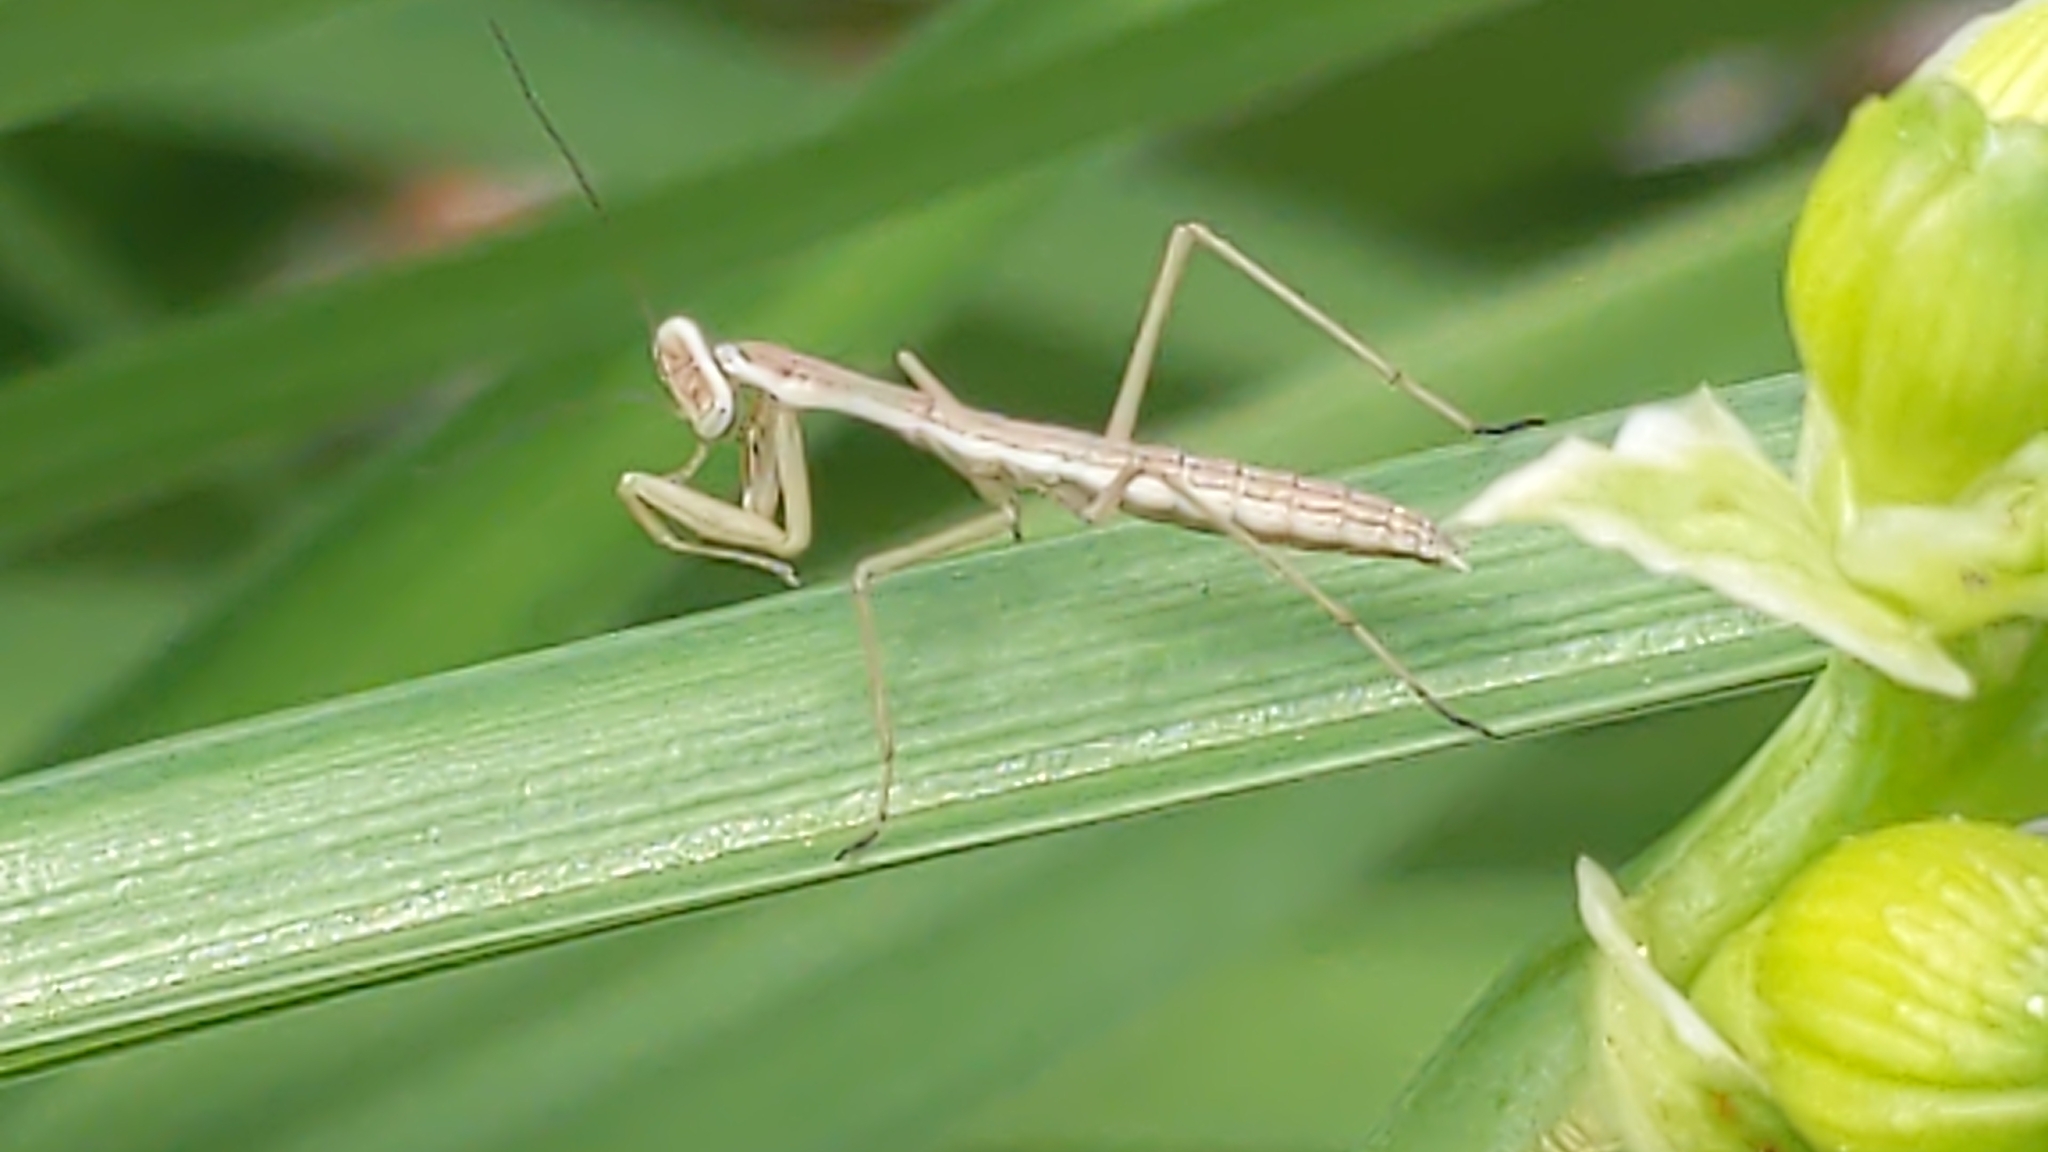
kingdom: Animalia
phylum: Arthropoda
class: Insecta
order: Mantodea
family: Mantidae
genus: Tenodera
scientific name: Tenodera sinensis
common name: Chinese mantis
